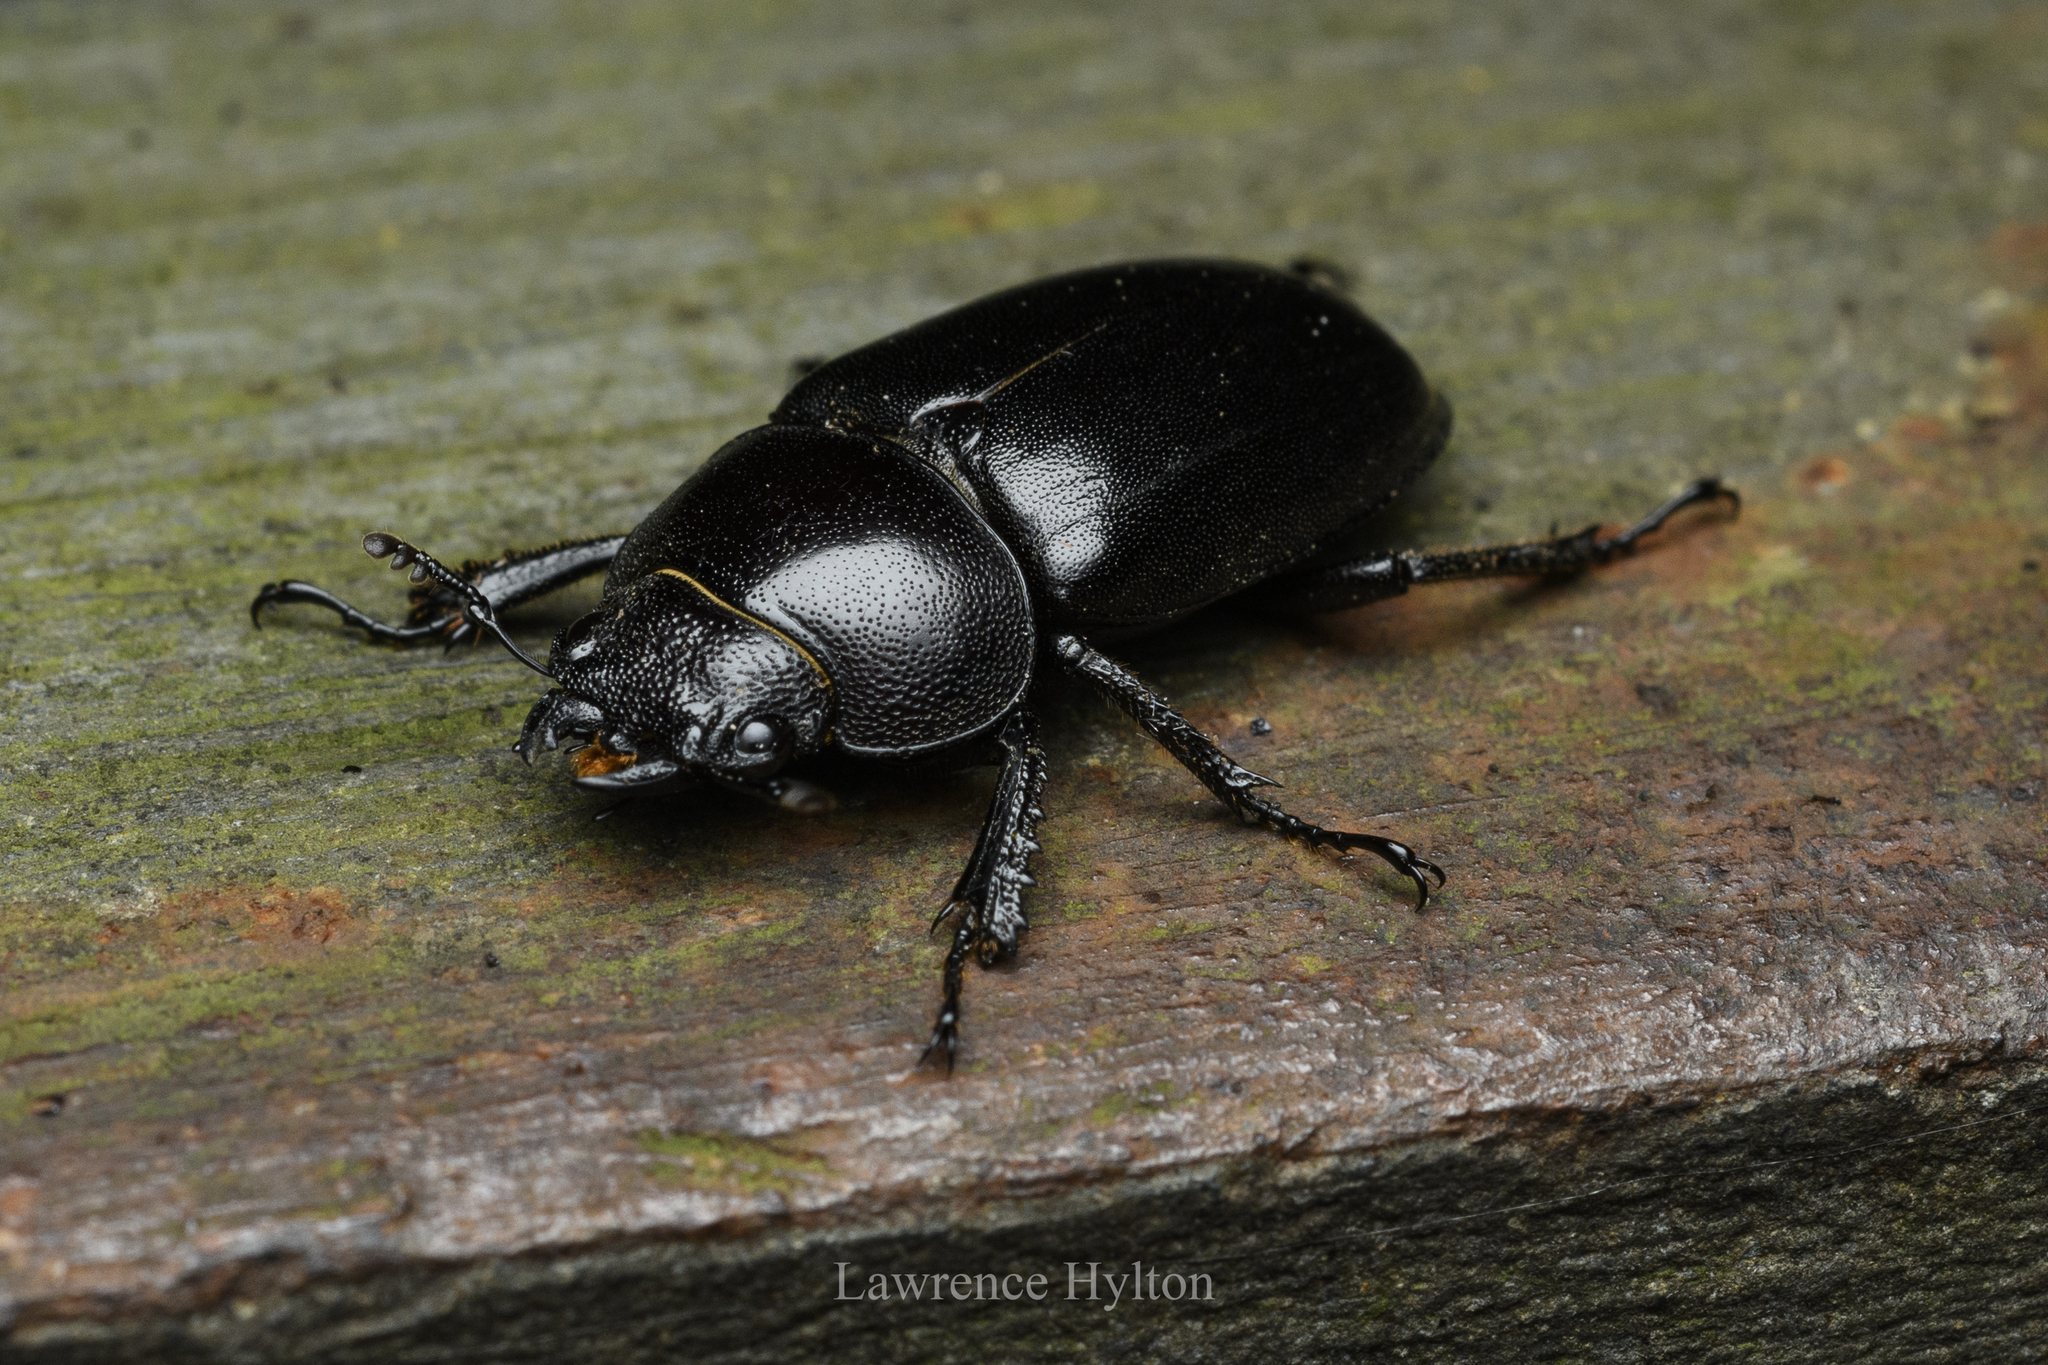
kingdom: Animalia
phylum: Arthropoda
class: Insecta
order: Coleoptera
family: Lucanidae
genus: Prosopocoilus
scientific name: Prosopocoilus oweni
